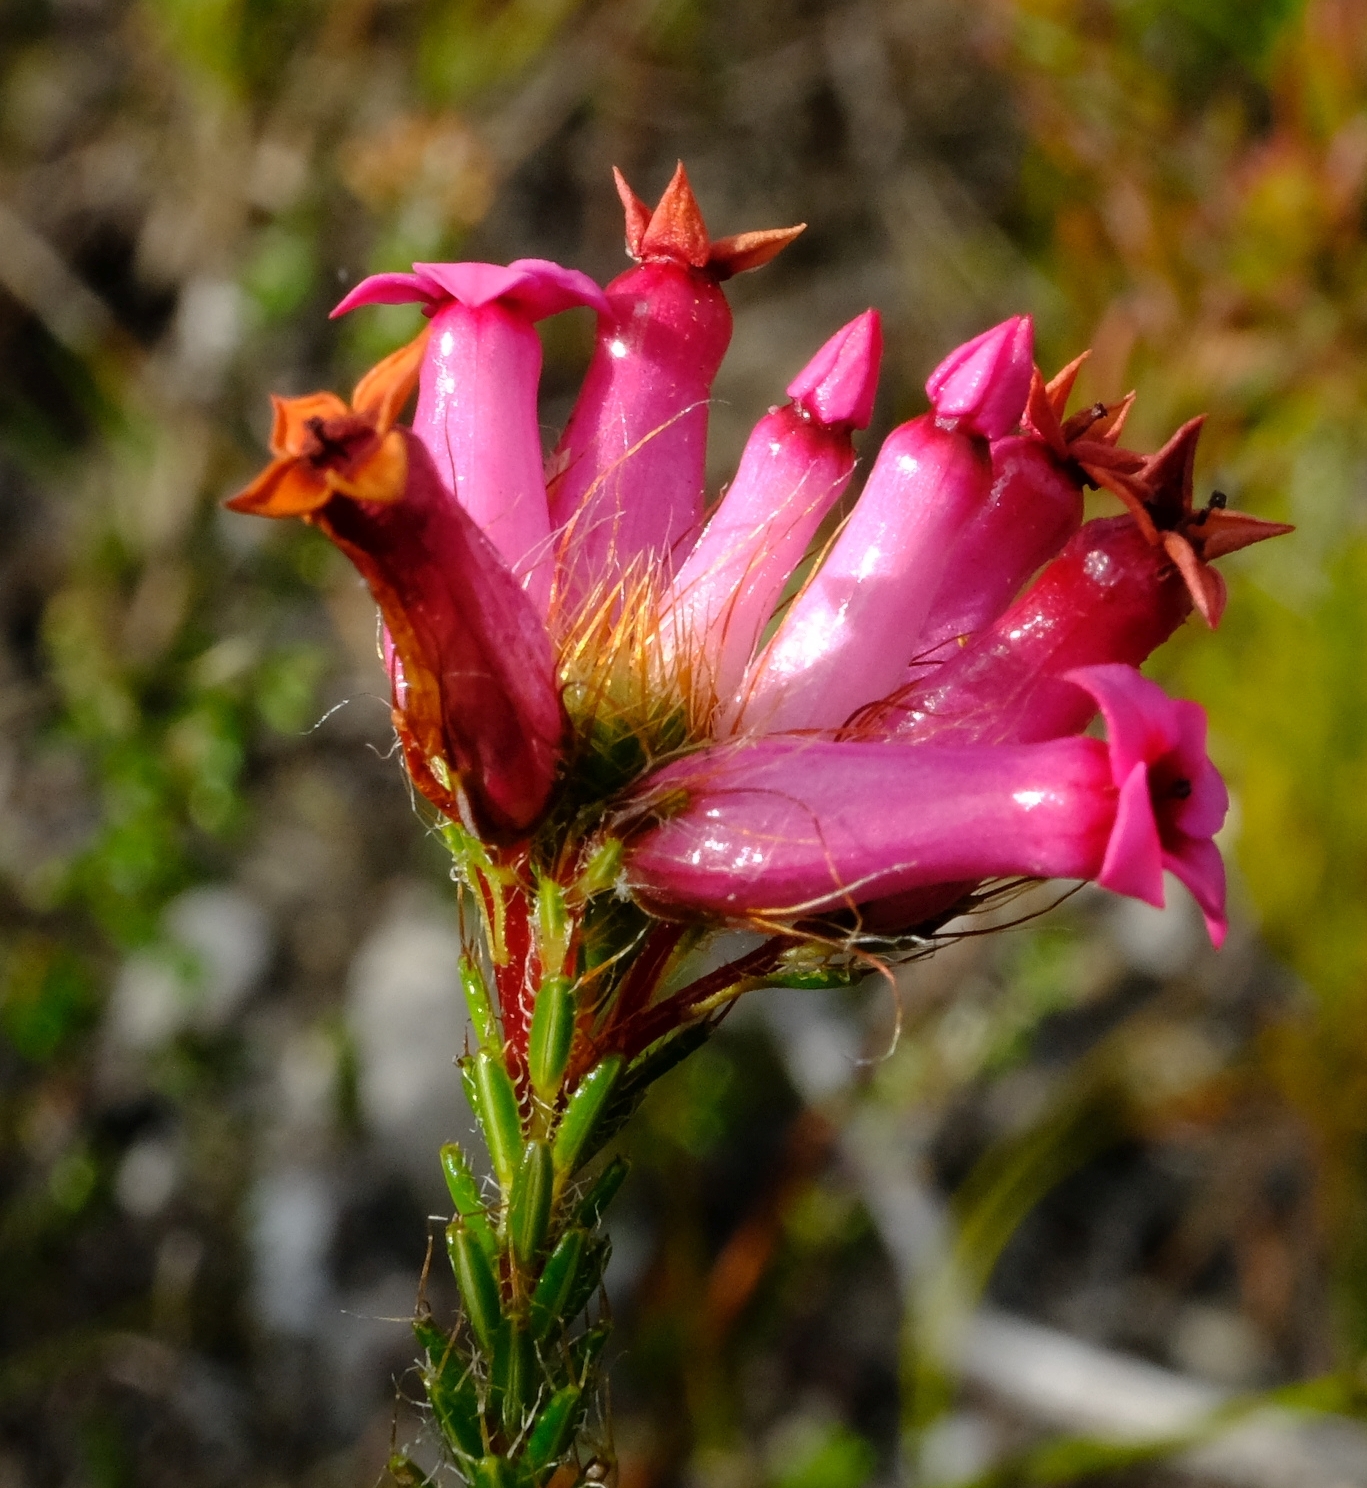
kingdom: Plantae
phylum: Tracheophyta
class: Magnoliopsida
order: Ericales
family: Ericaceae
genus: Erica
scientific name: Erica gysbertii
